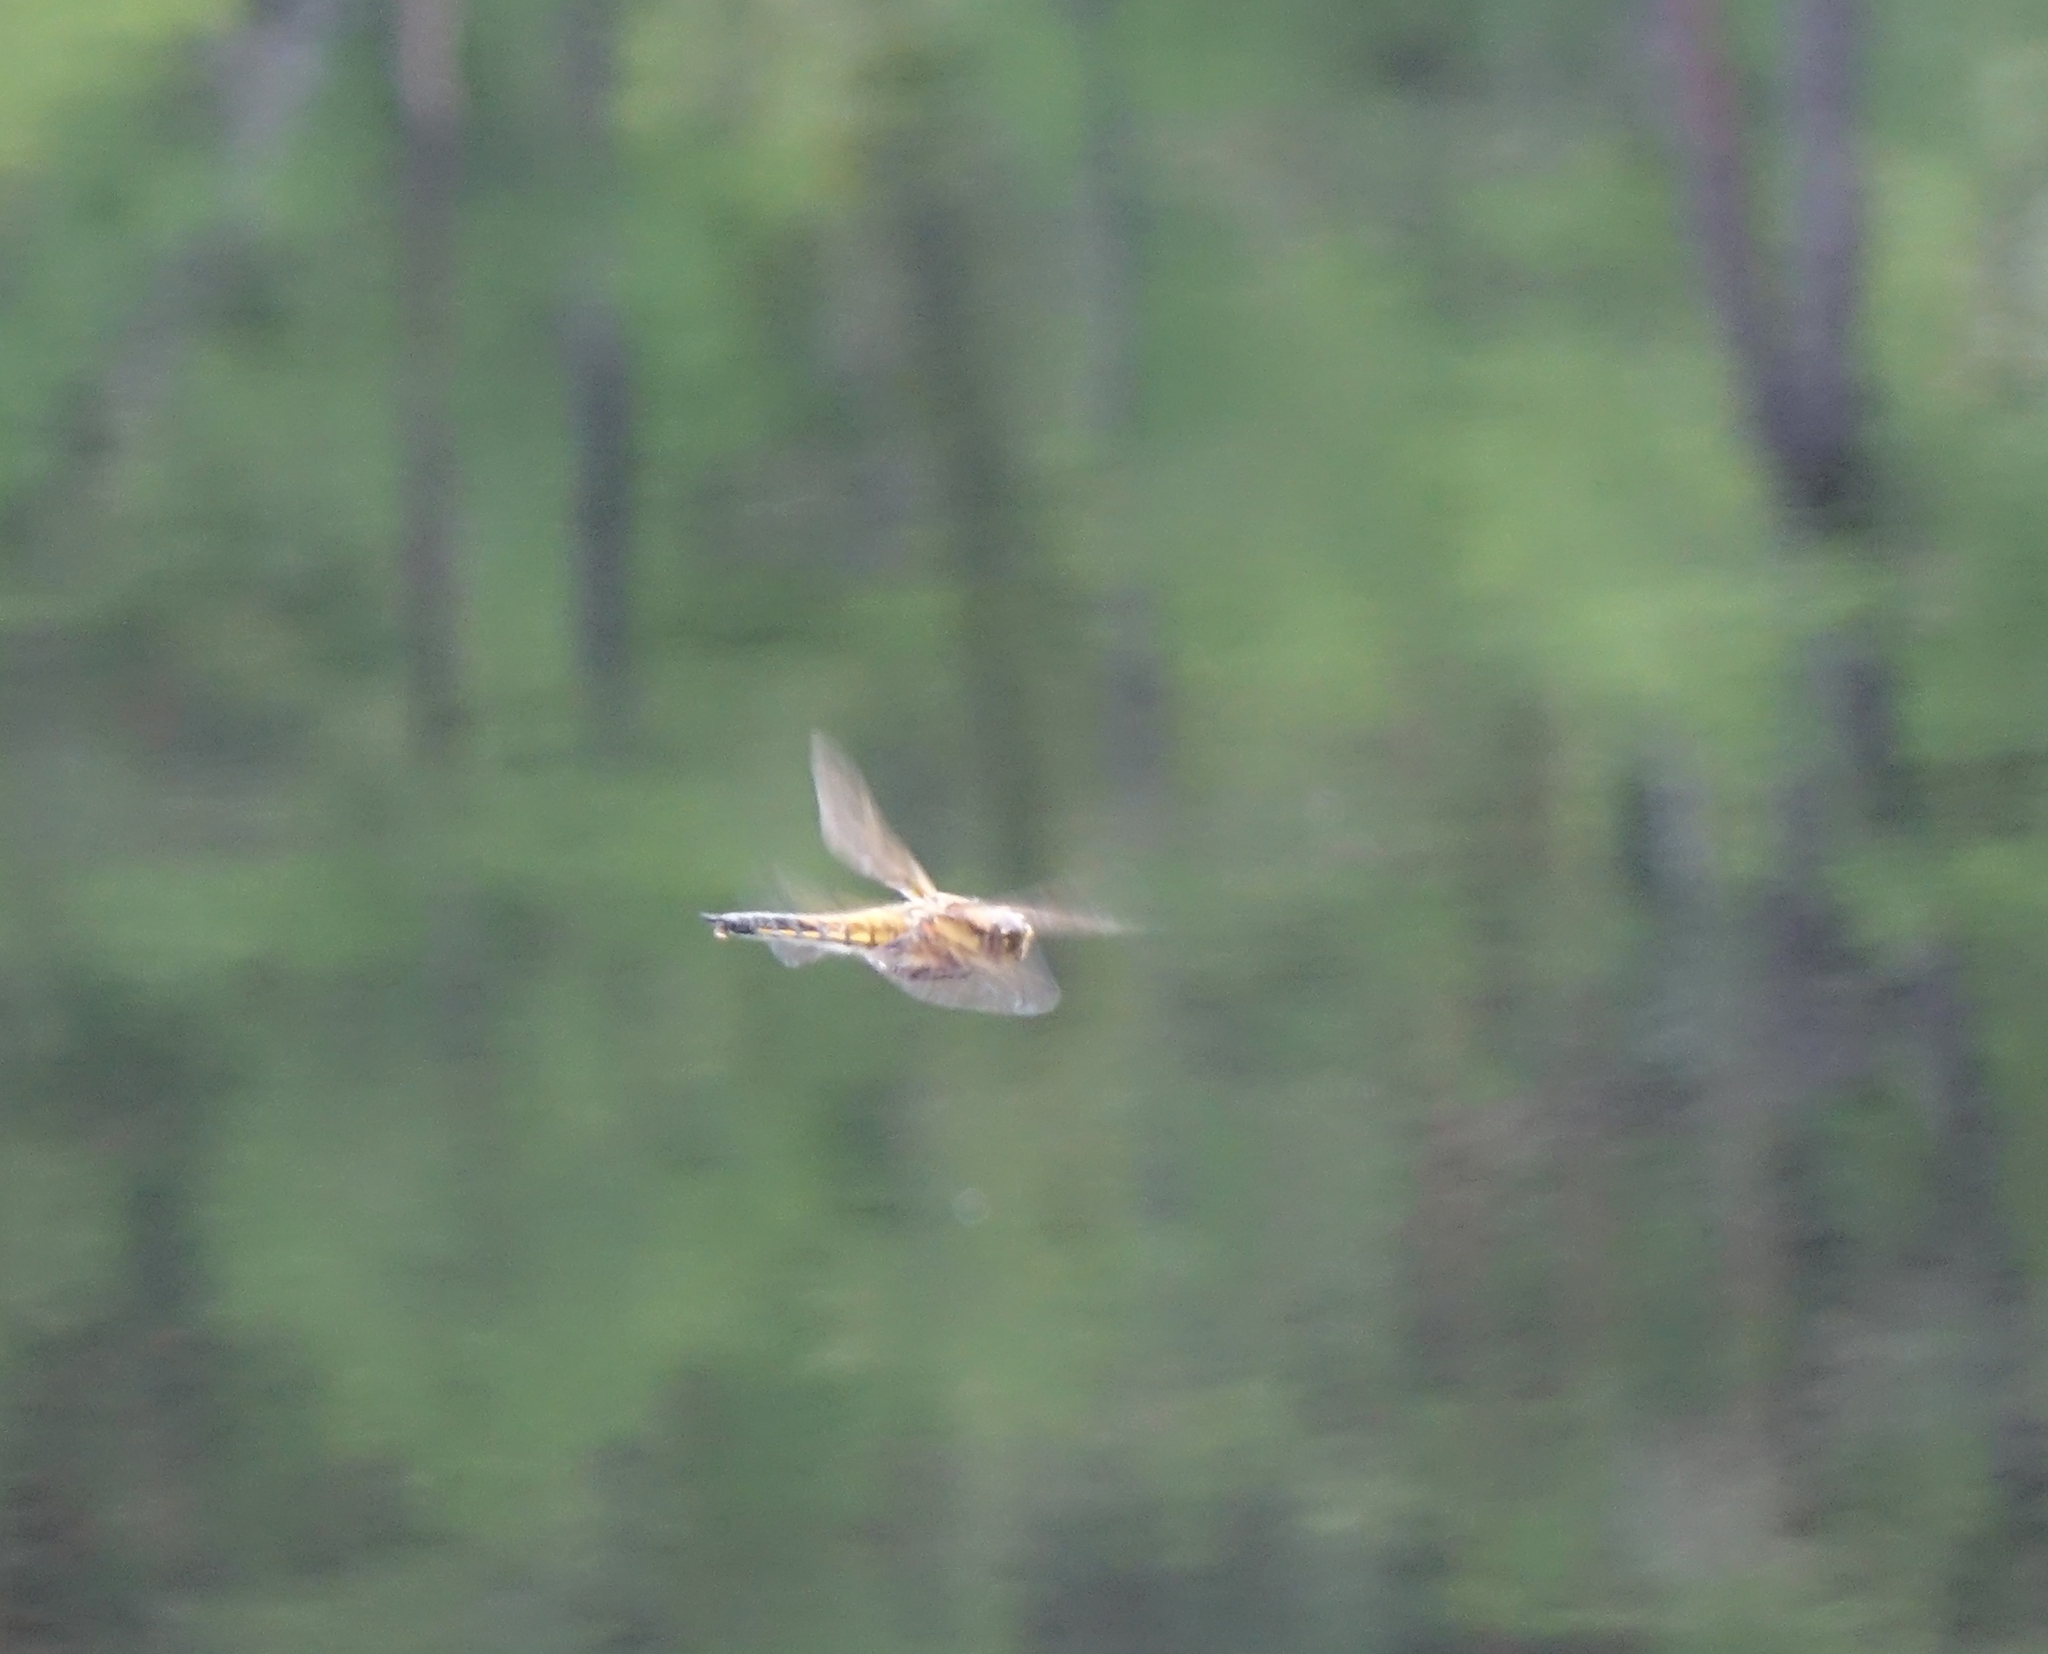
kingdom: Animalia
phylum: Arthropoda
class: Insecta
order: Odonata
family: Libellulidae
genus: Libellula
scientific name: Libellula quadrimaculata
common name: Four-spotted chaser
